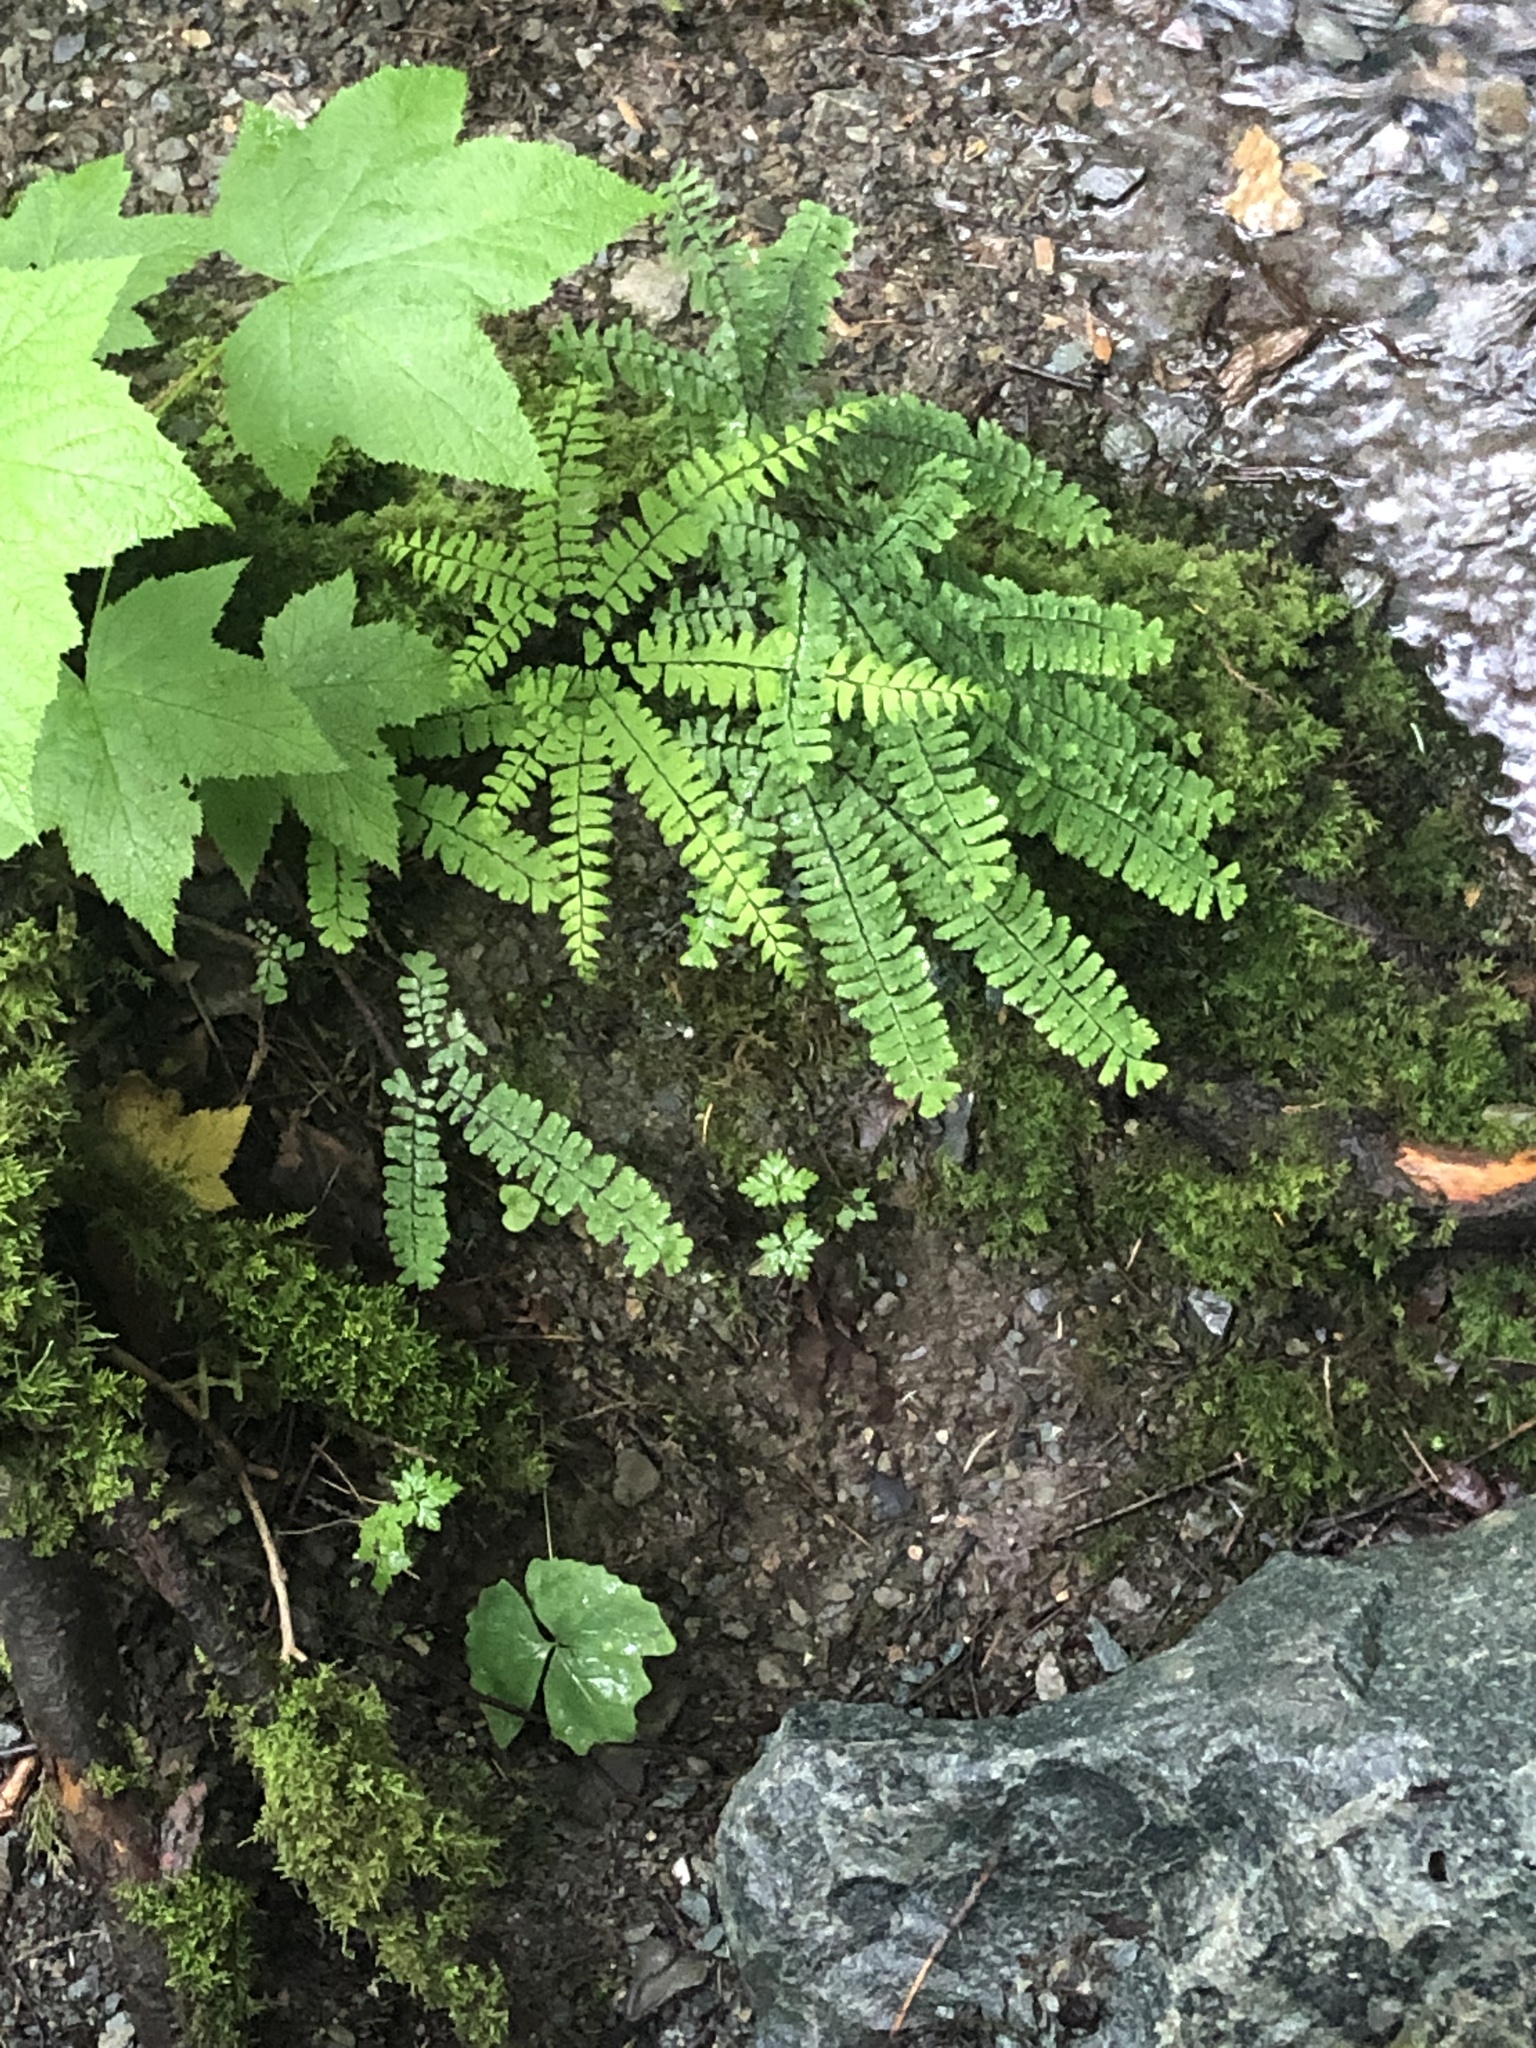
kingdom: Plantae
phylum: Tracheophyta
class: Polypodiopsida
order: Polypodiales
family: Pteridaceae
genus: Adiantum
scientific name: Adiantum aleuticum
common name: Aleutian maidenhair fern
